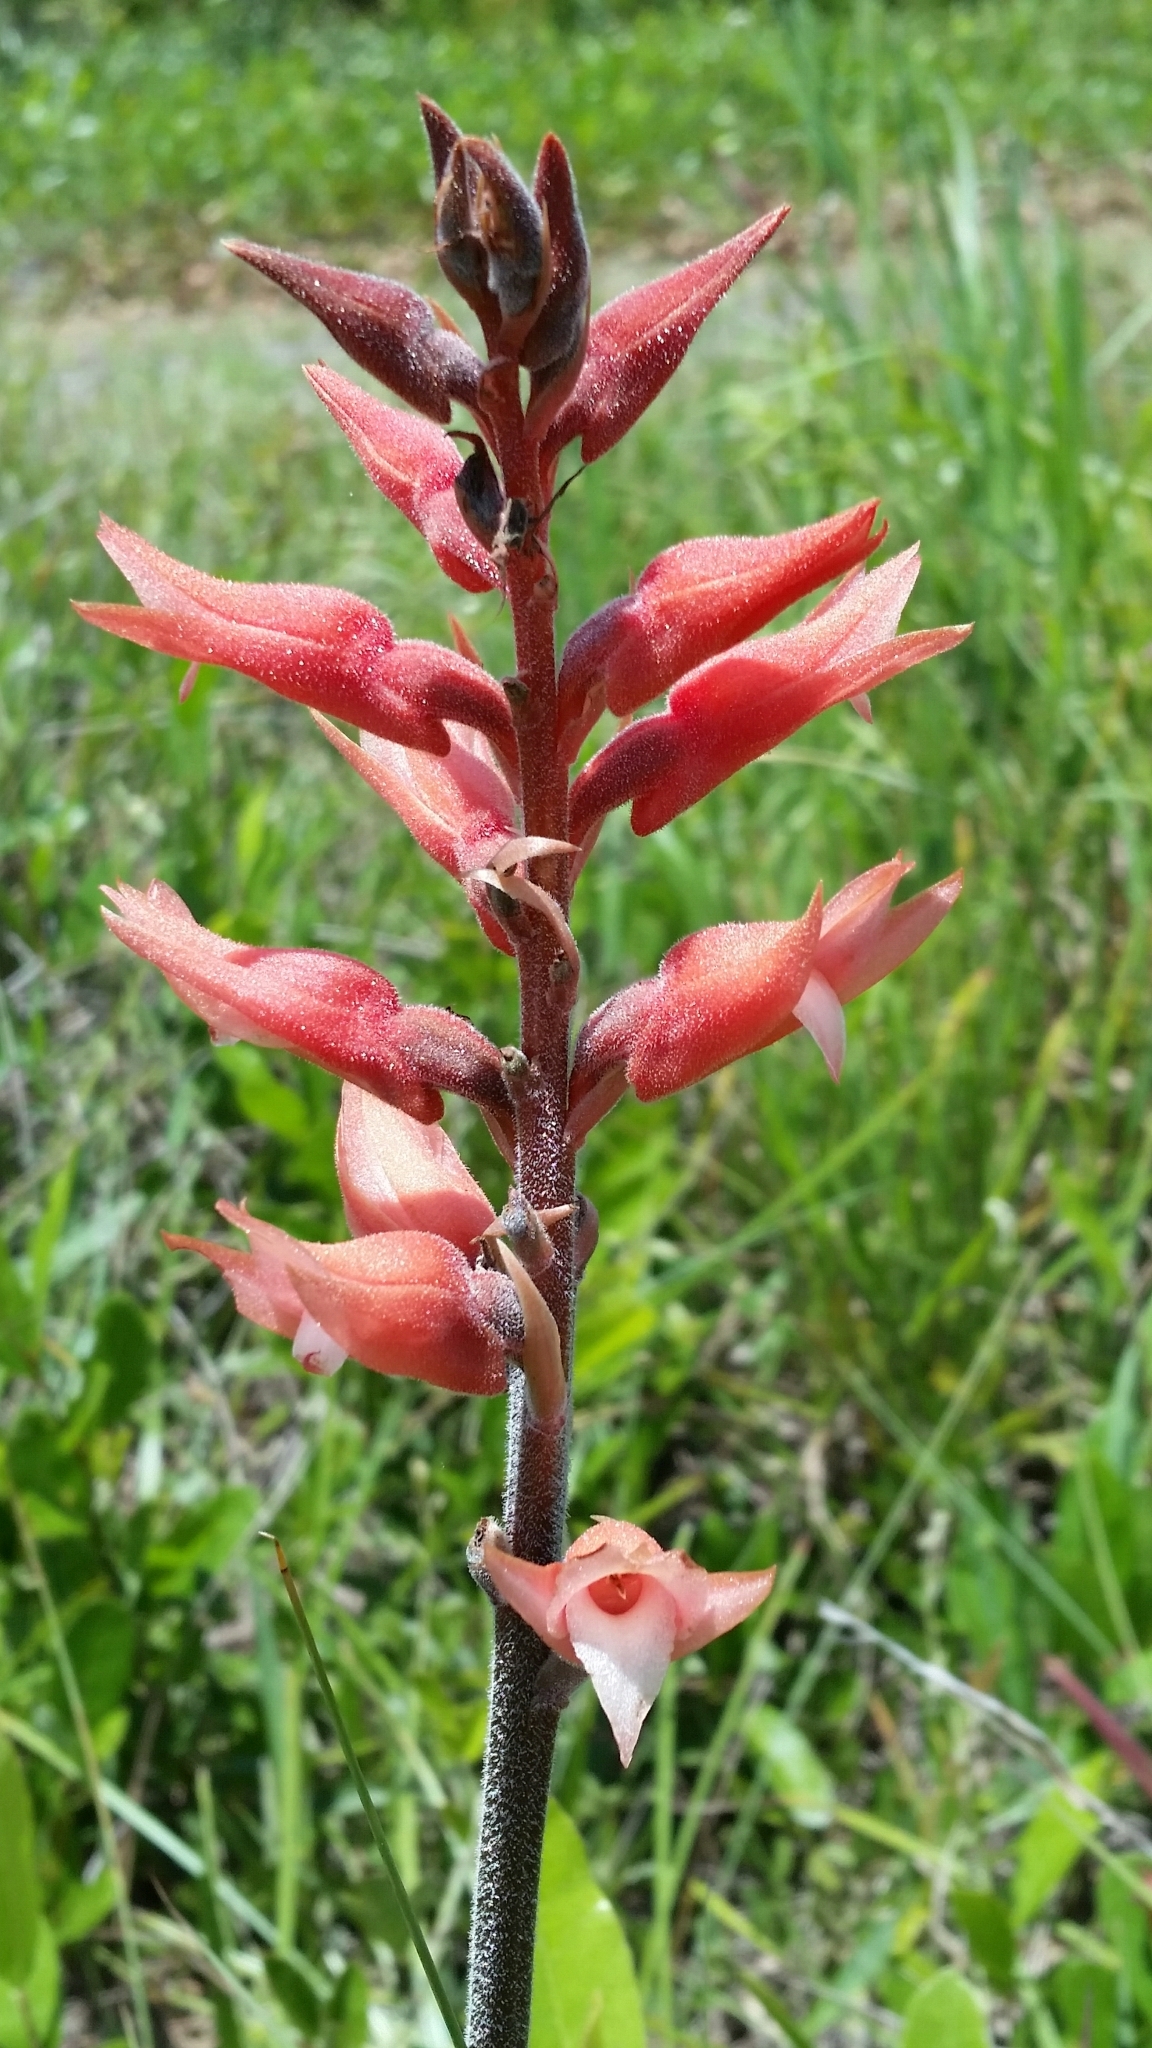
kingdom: Plantae
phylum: Tracheophyta
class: Liliopsida
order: Asparagales
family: Orchidaceae
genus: Sacoila
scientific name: Sacoila lanceolata
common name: Leafless beaked ladiestresses
